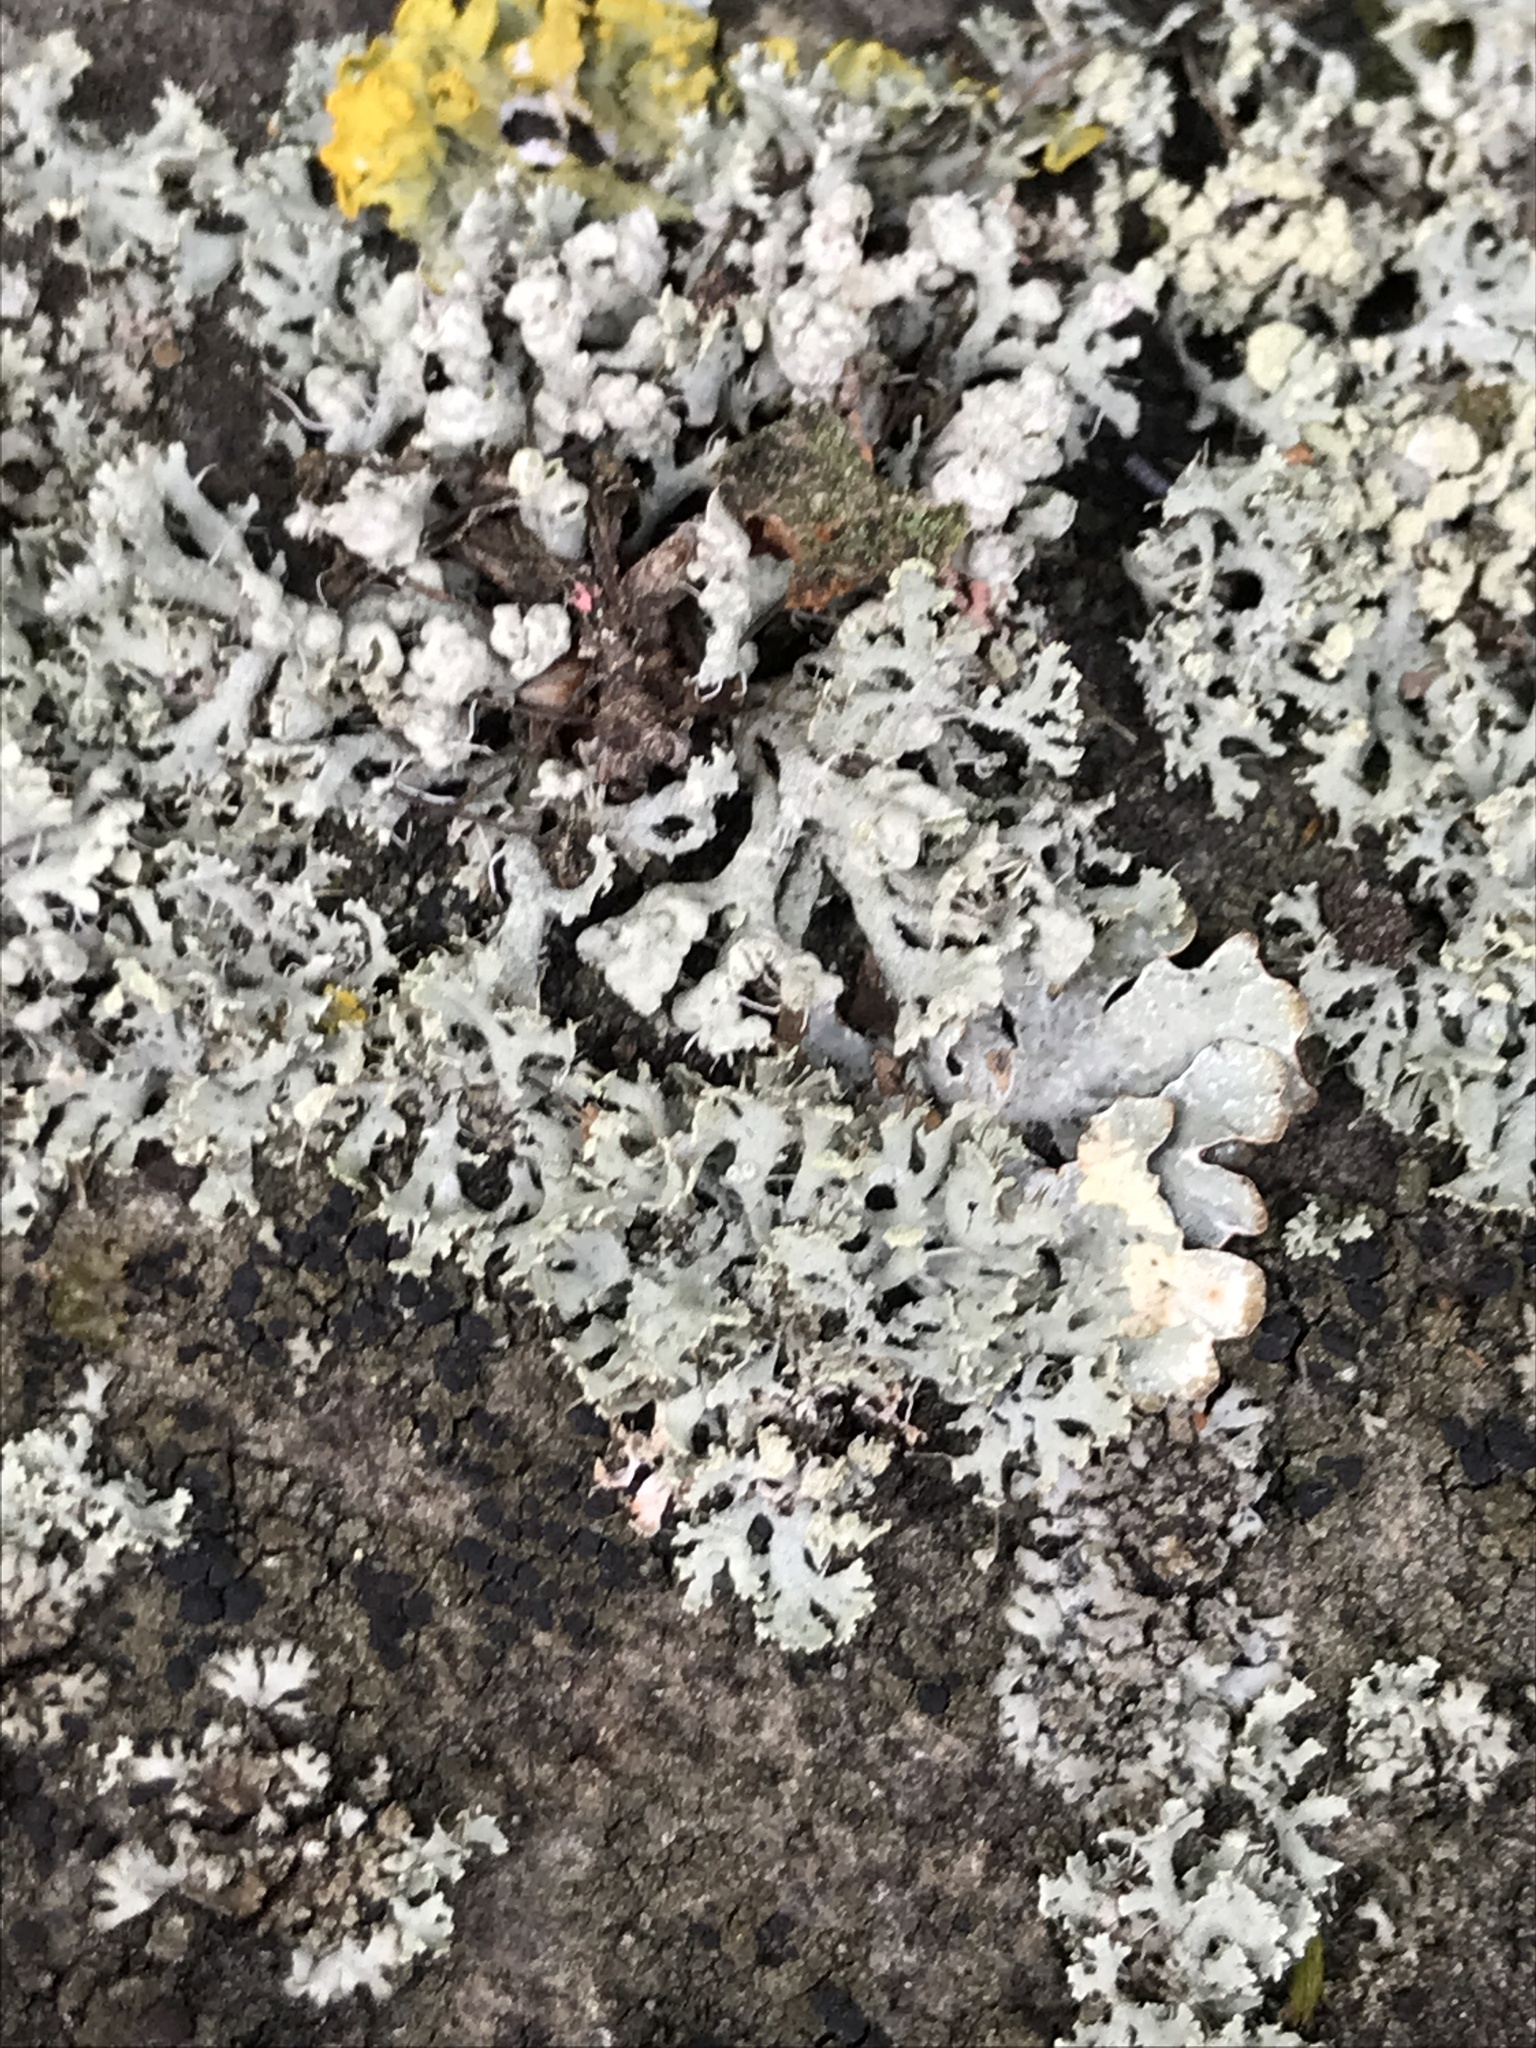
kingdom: Fungi
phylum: Ascomycota
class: Lecanoromycetes
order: Caliciales
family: Physciaceae
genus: Physcia
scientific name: Physcia adscendens
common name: Hooded rosette lichen
